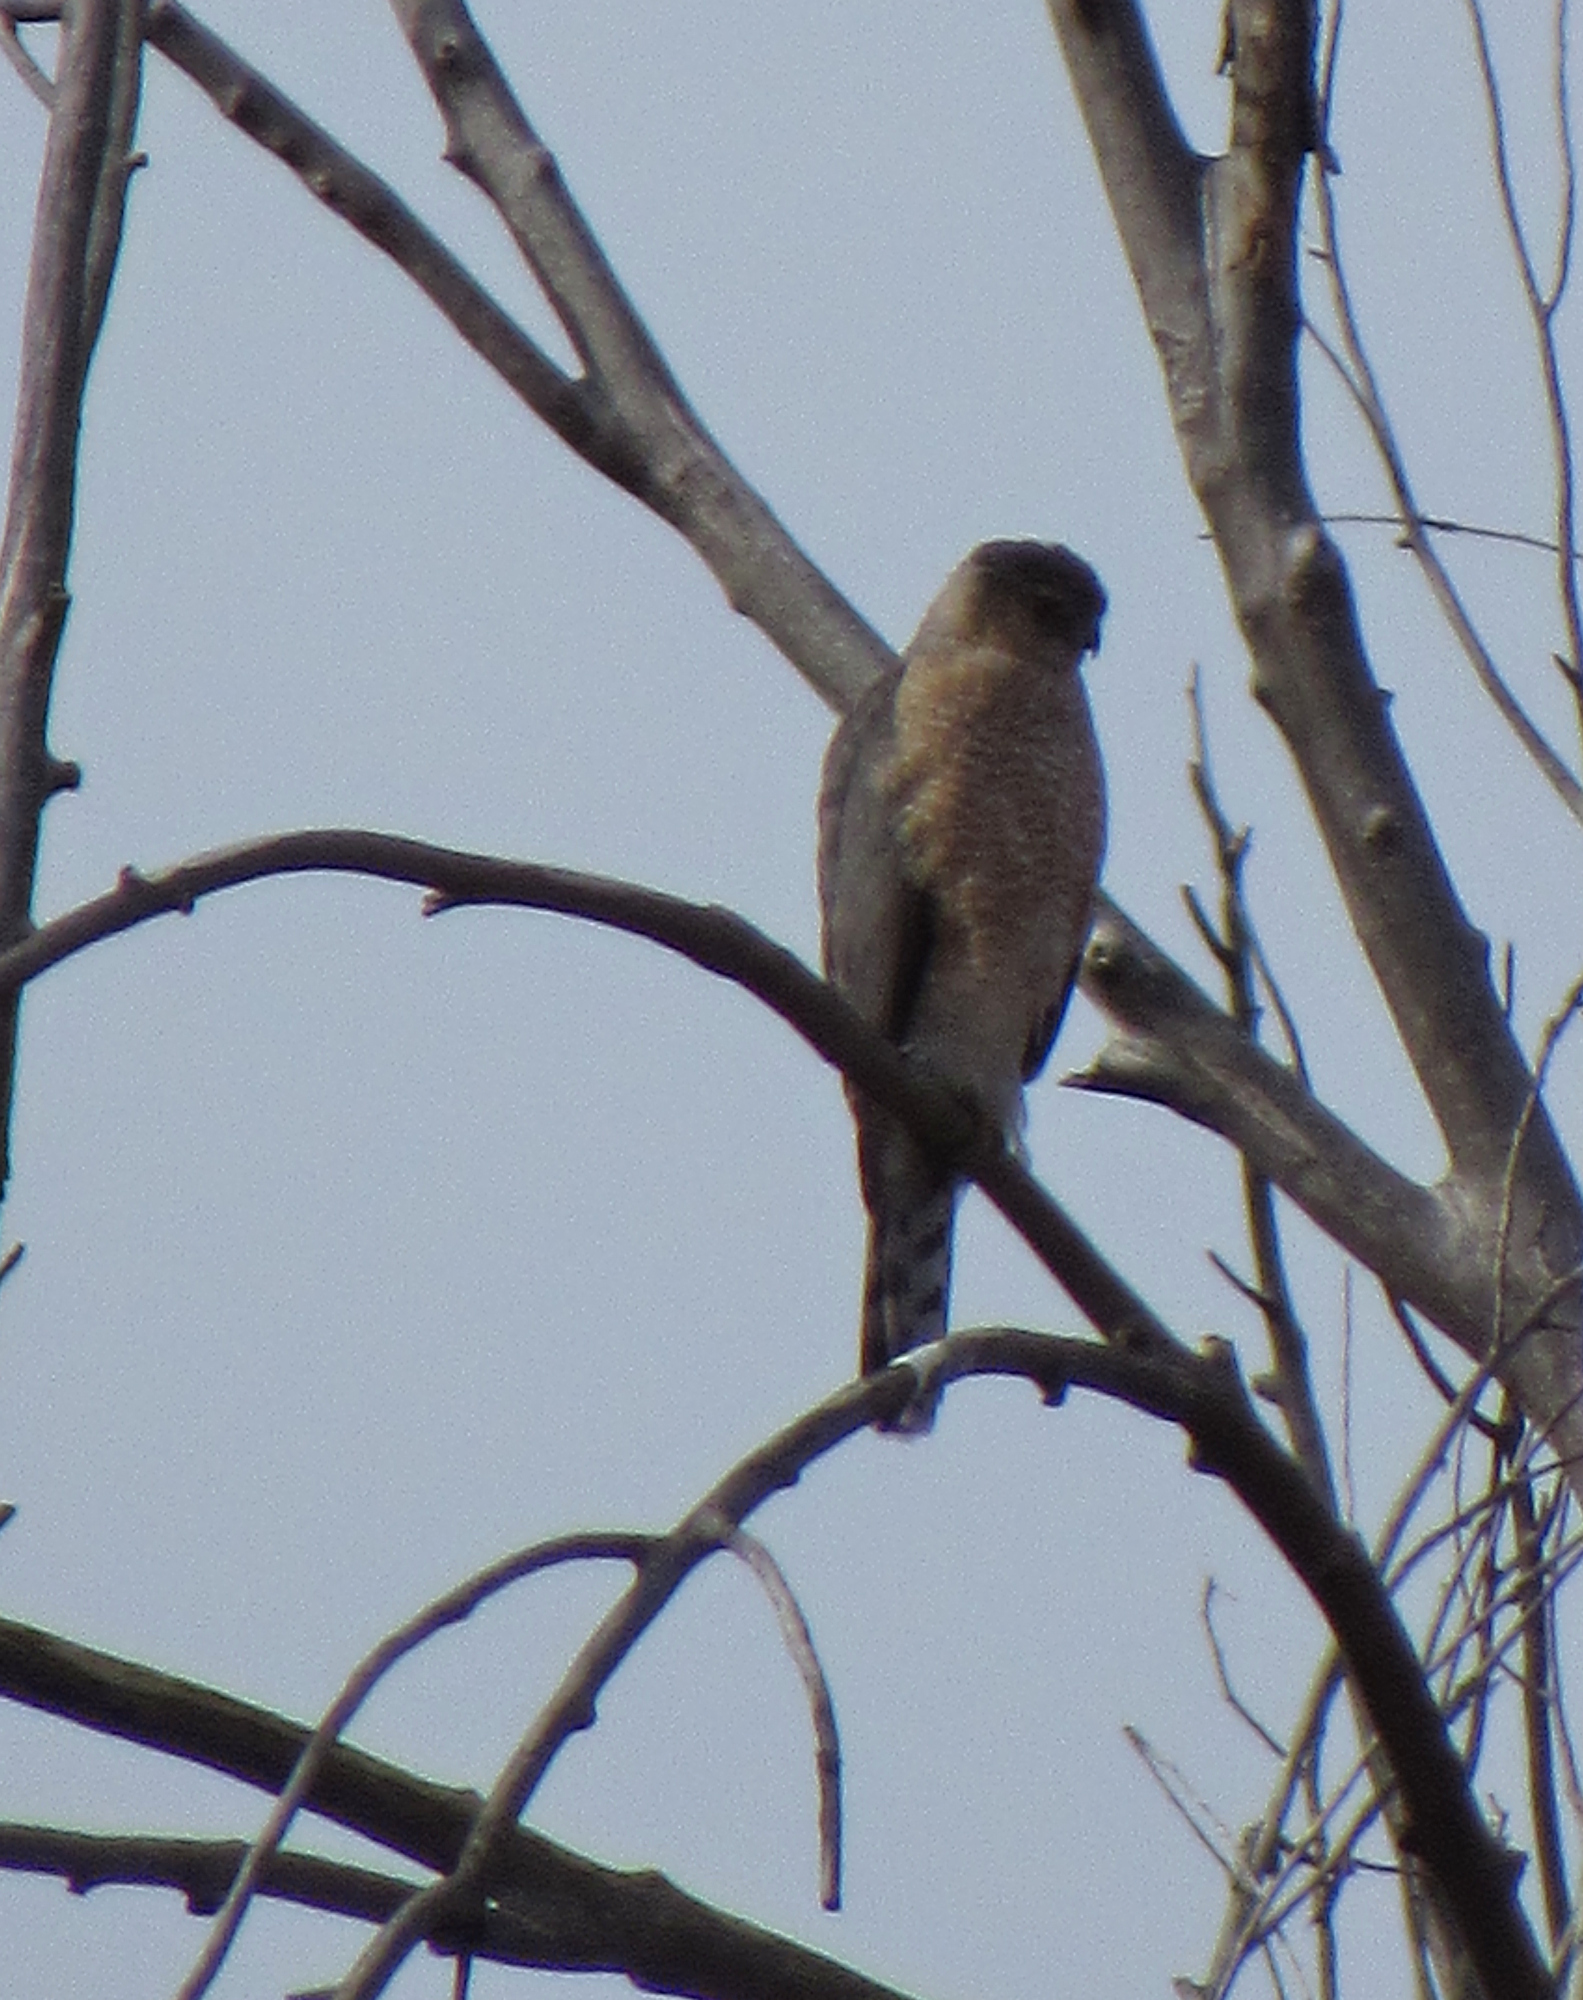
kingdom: Animalia
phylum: Chordata
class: Aves
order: Accipitriformes
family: Accipitridae
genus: Accipiter
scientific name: Accipiter cooperii
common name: Cooper's hawk
